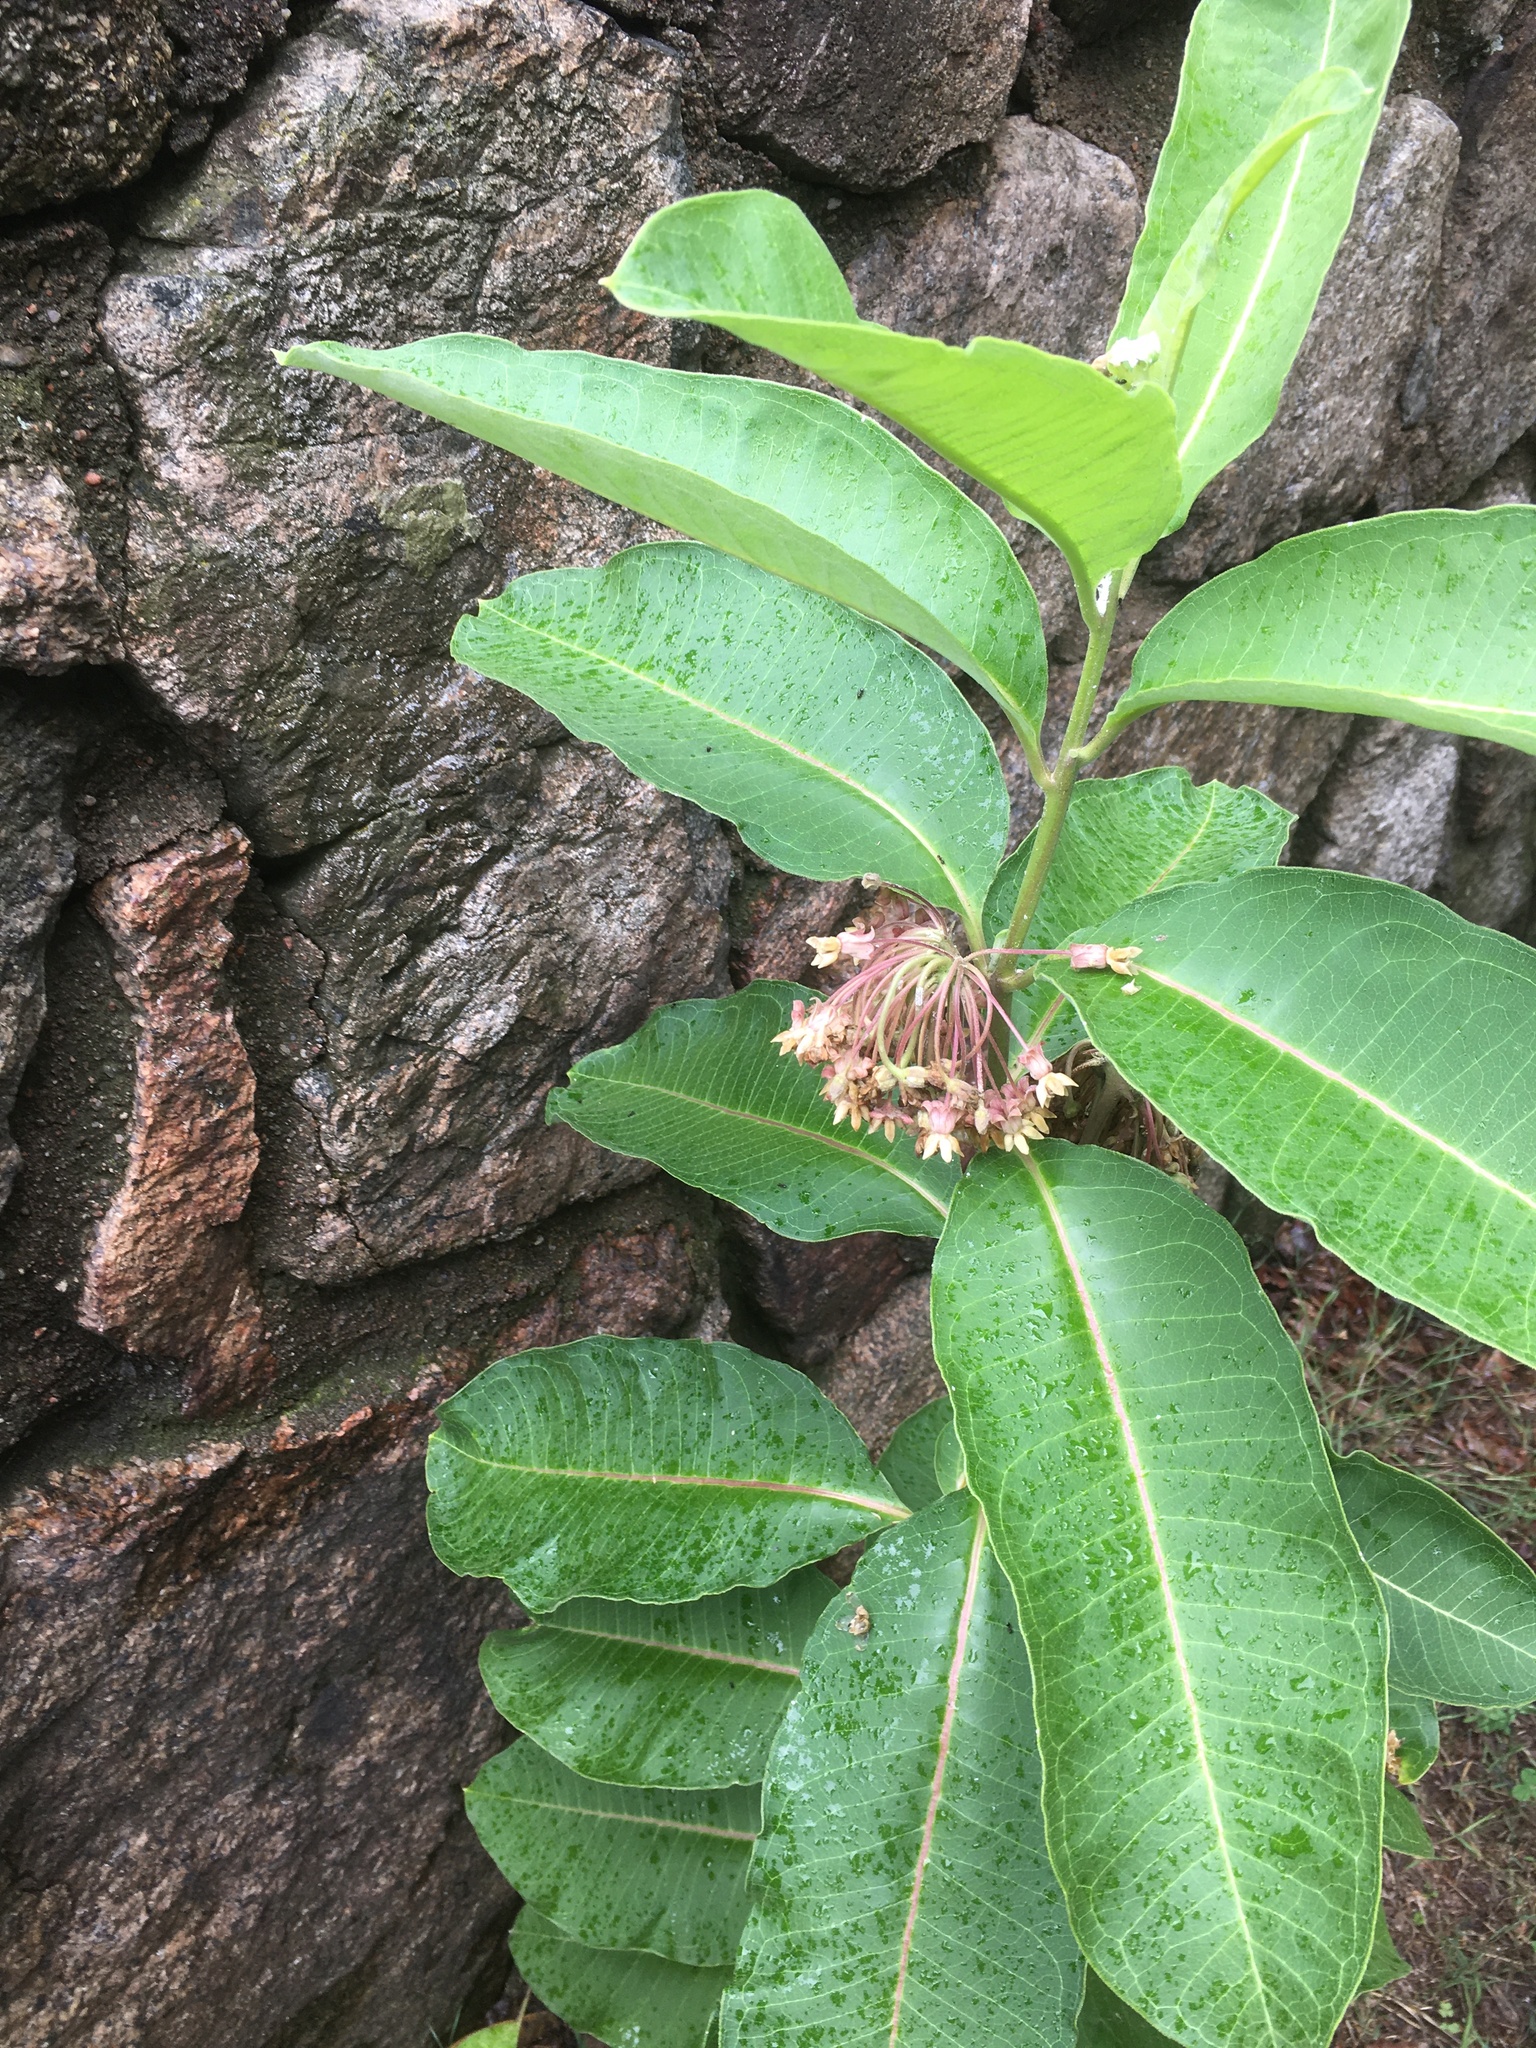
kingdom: Plantae
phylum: Tracheophyta
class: Magnoliopsida
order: Gentianales
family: Apocynaceae
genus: Asclepias
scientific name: Asclepias syriaca
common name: Common milkweed
